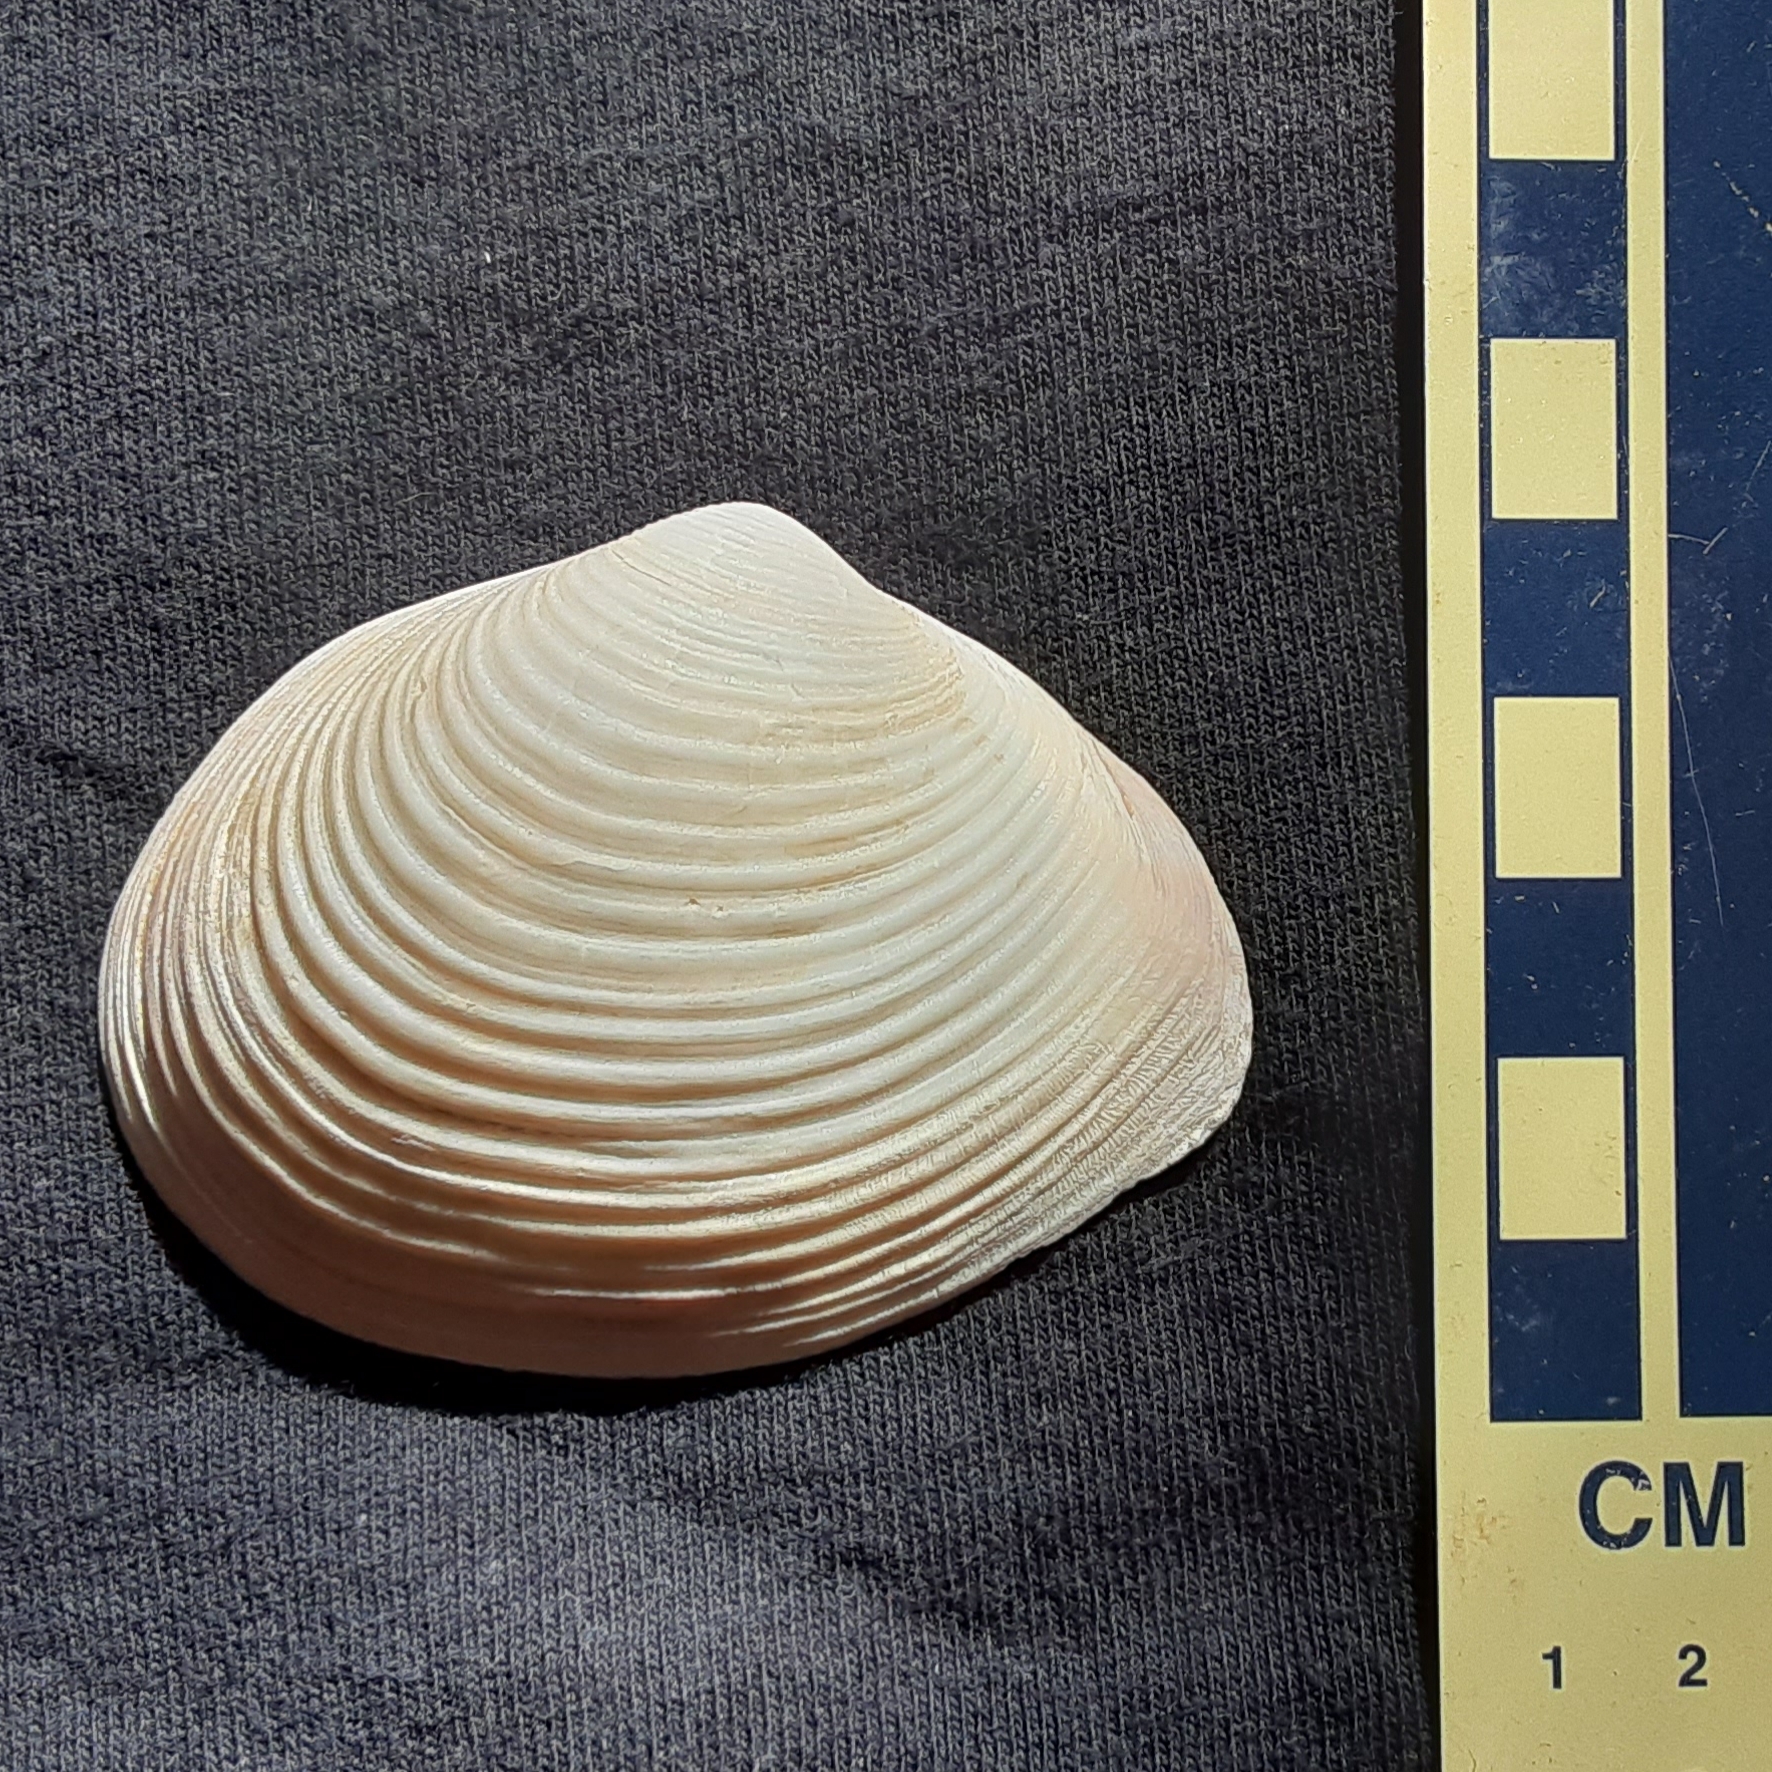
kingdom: Animalia
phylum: Mollusca
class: Bivalvia
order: Venerida
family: Anatinellidae
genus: Raeta
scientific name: Raeta plicatella
